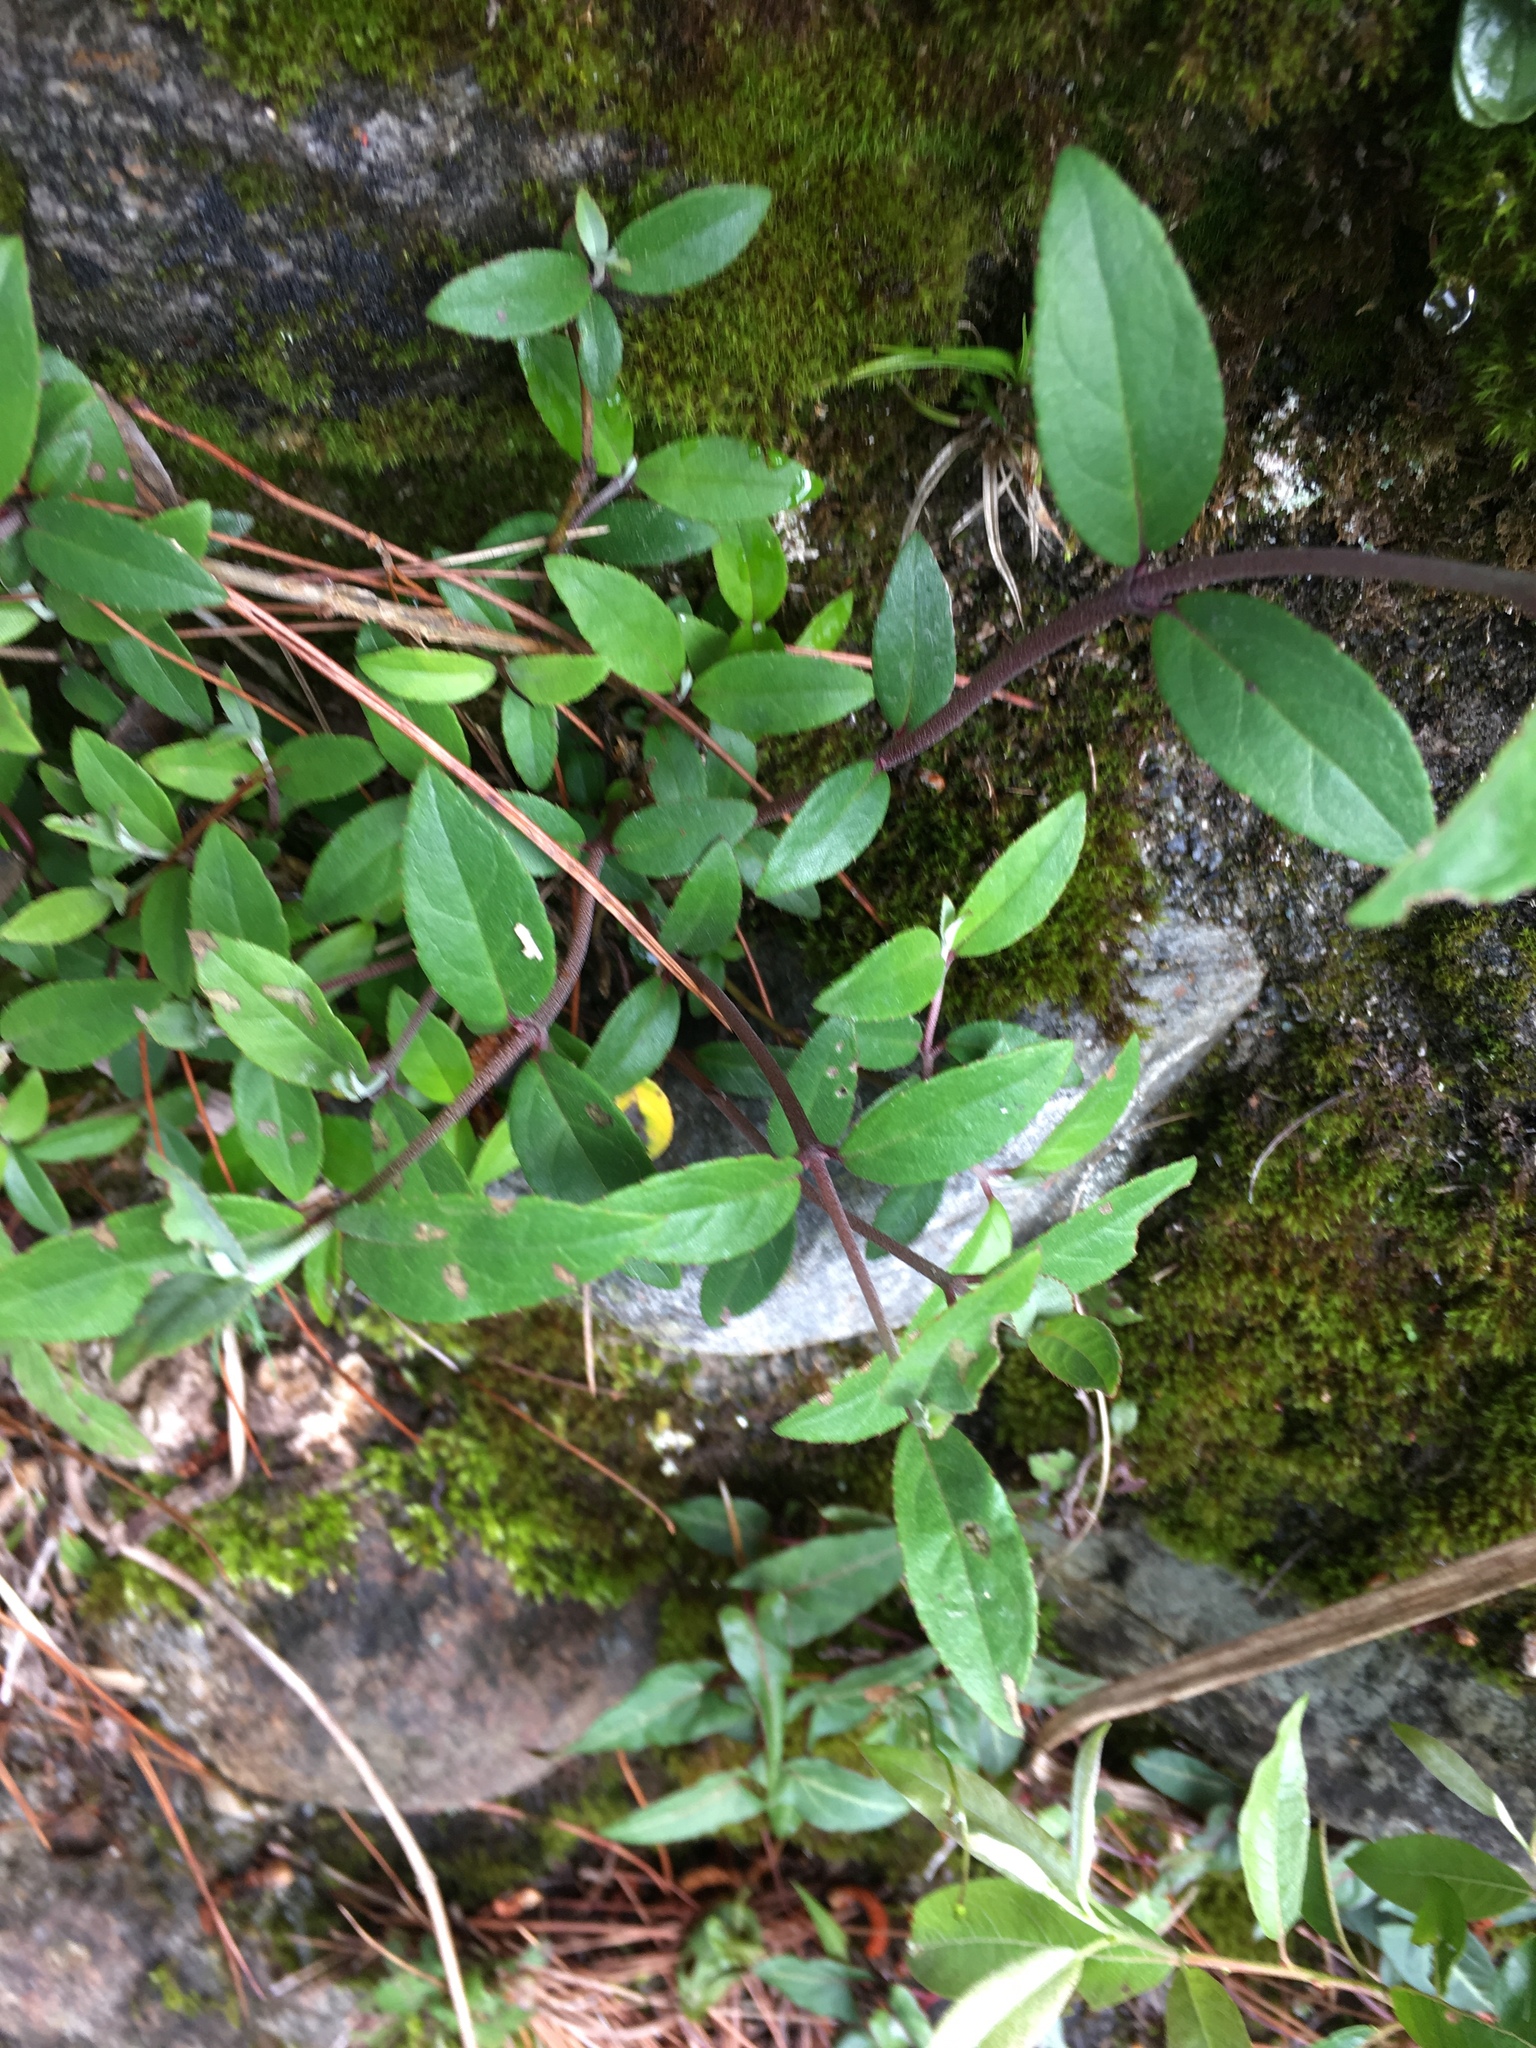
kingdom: Plantae
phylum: Tracheophyta
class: Magnoliopsida
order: Cornales
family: Hydrangeaceae
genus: Deutzia
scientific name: Deutzia pulchra
